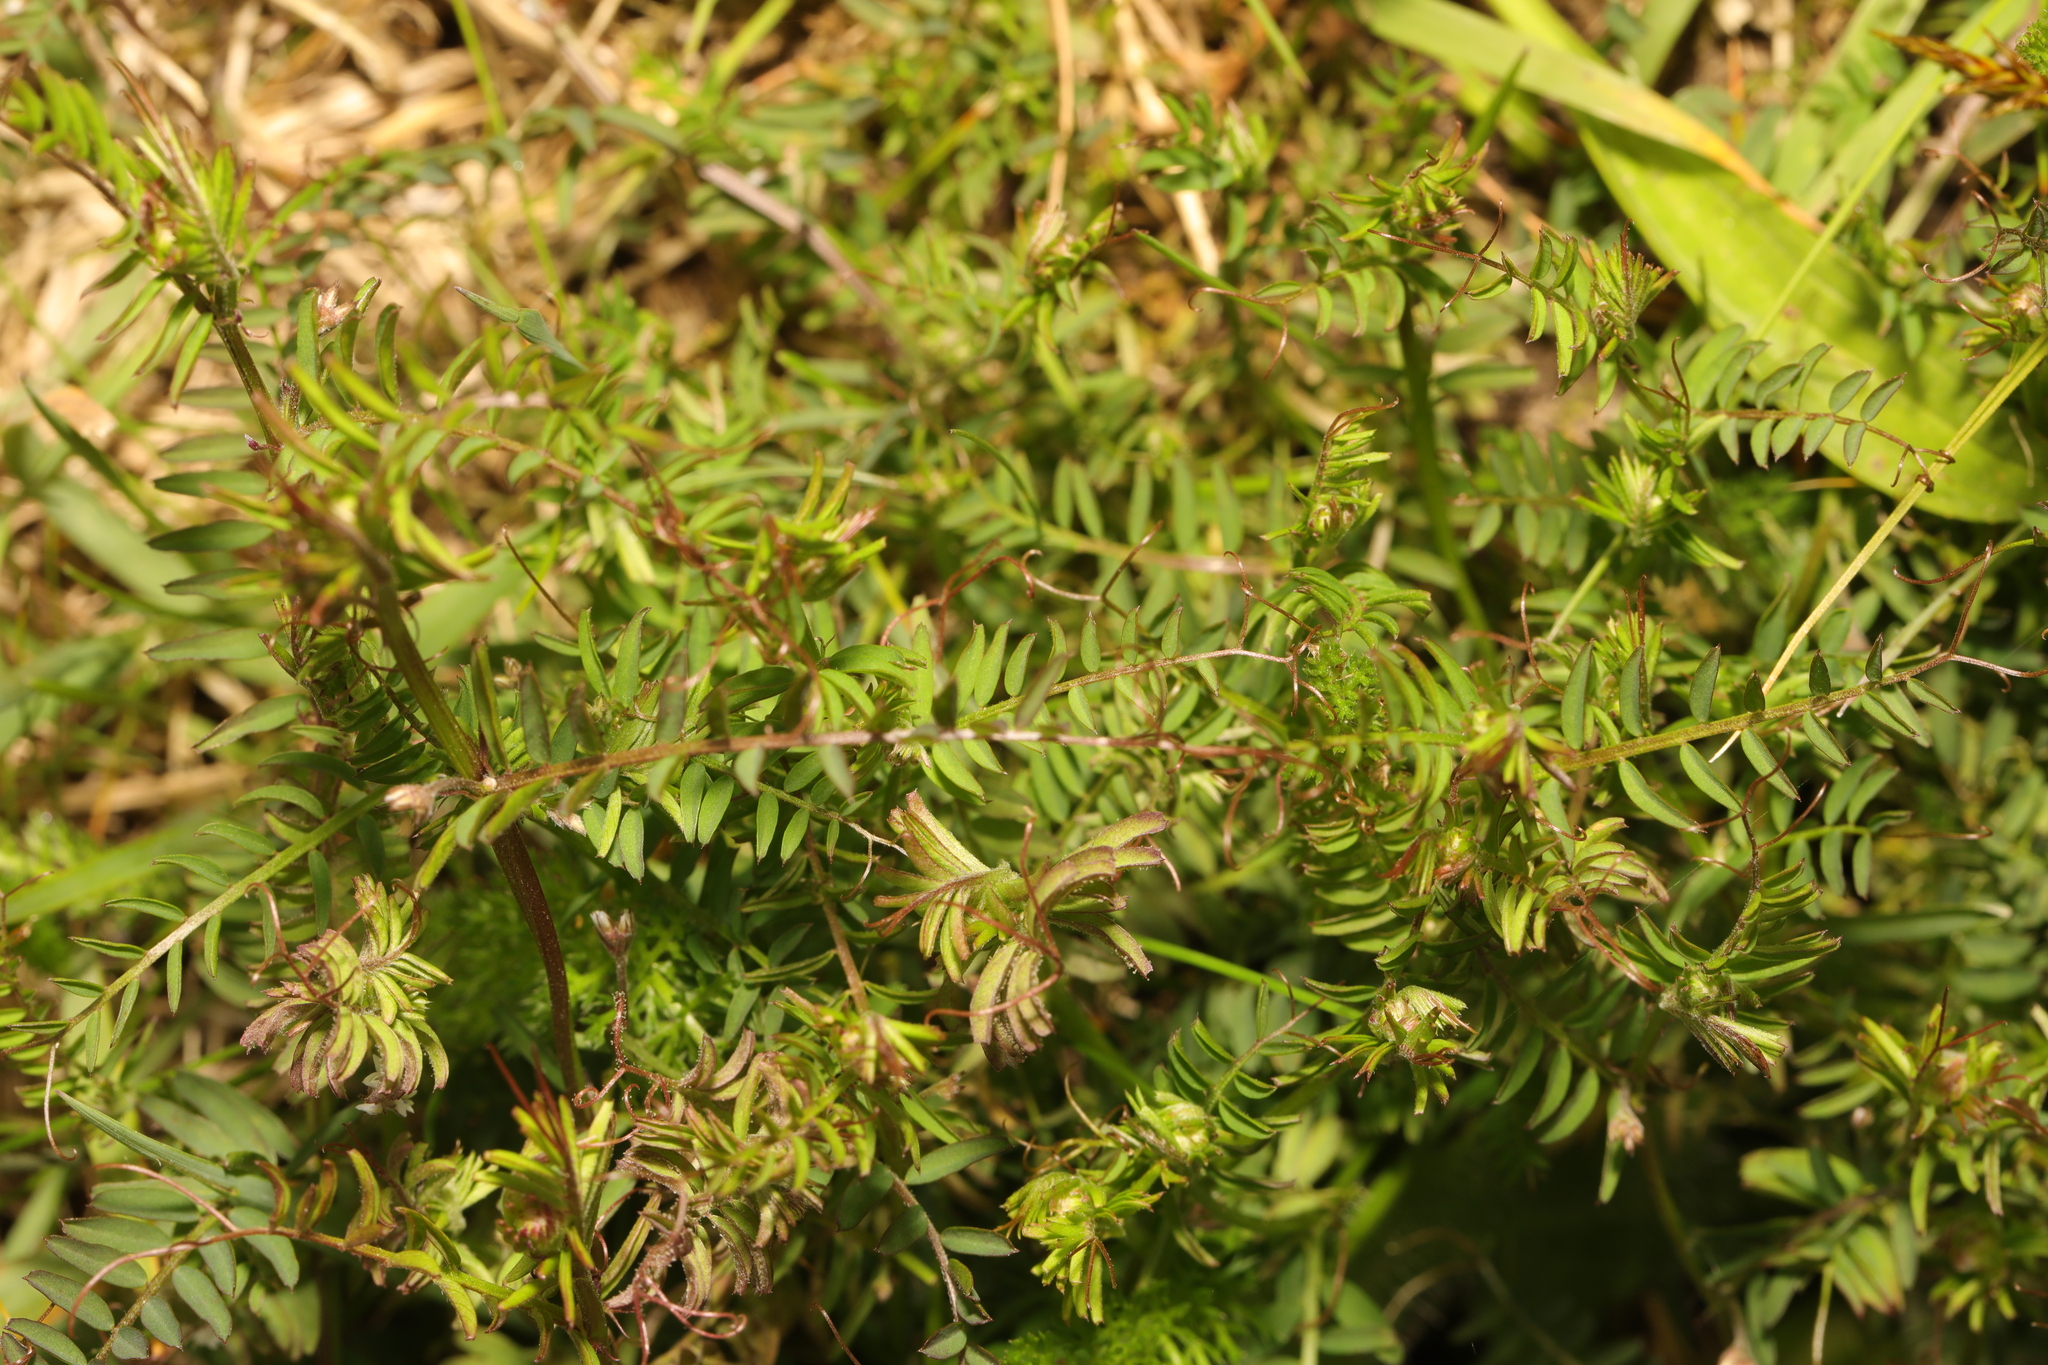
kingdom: Plantae
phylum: Tracheophyta
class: Magnoliopsida
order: Fabales
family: Fabaceae
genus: Vicia
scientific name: Vicia hirsuta
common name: Tiny vetch
